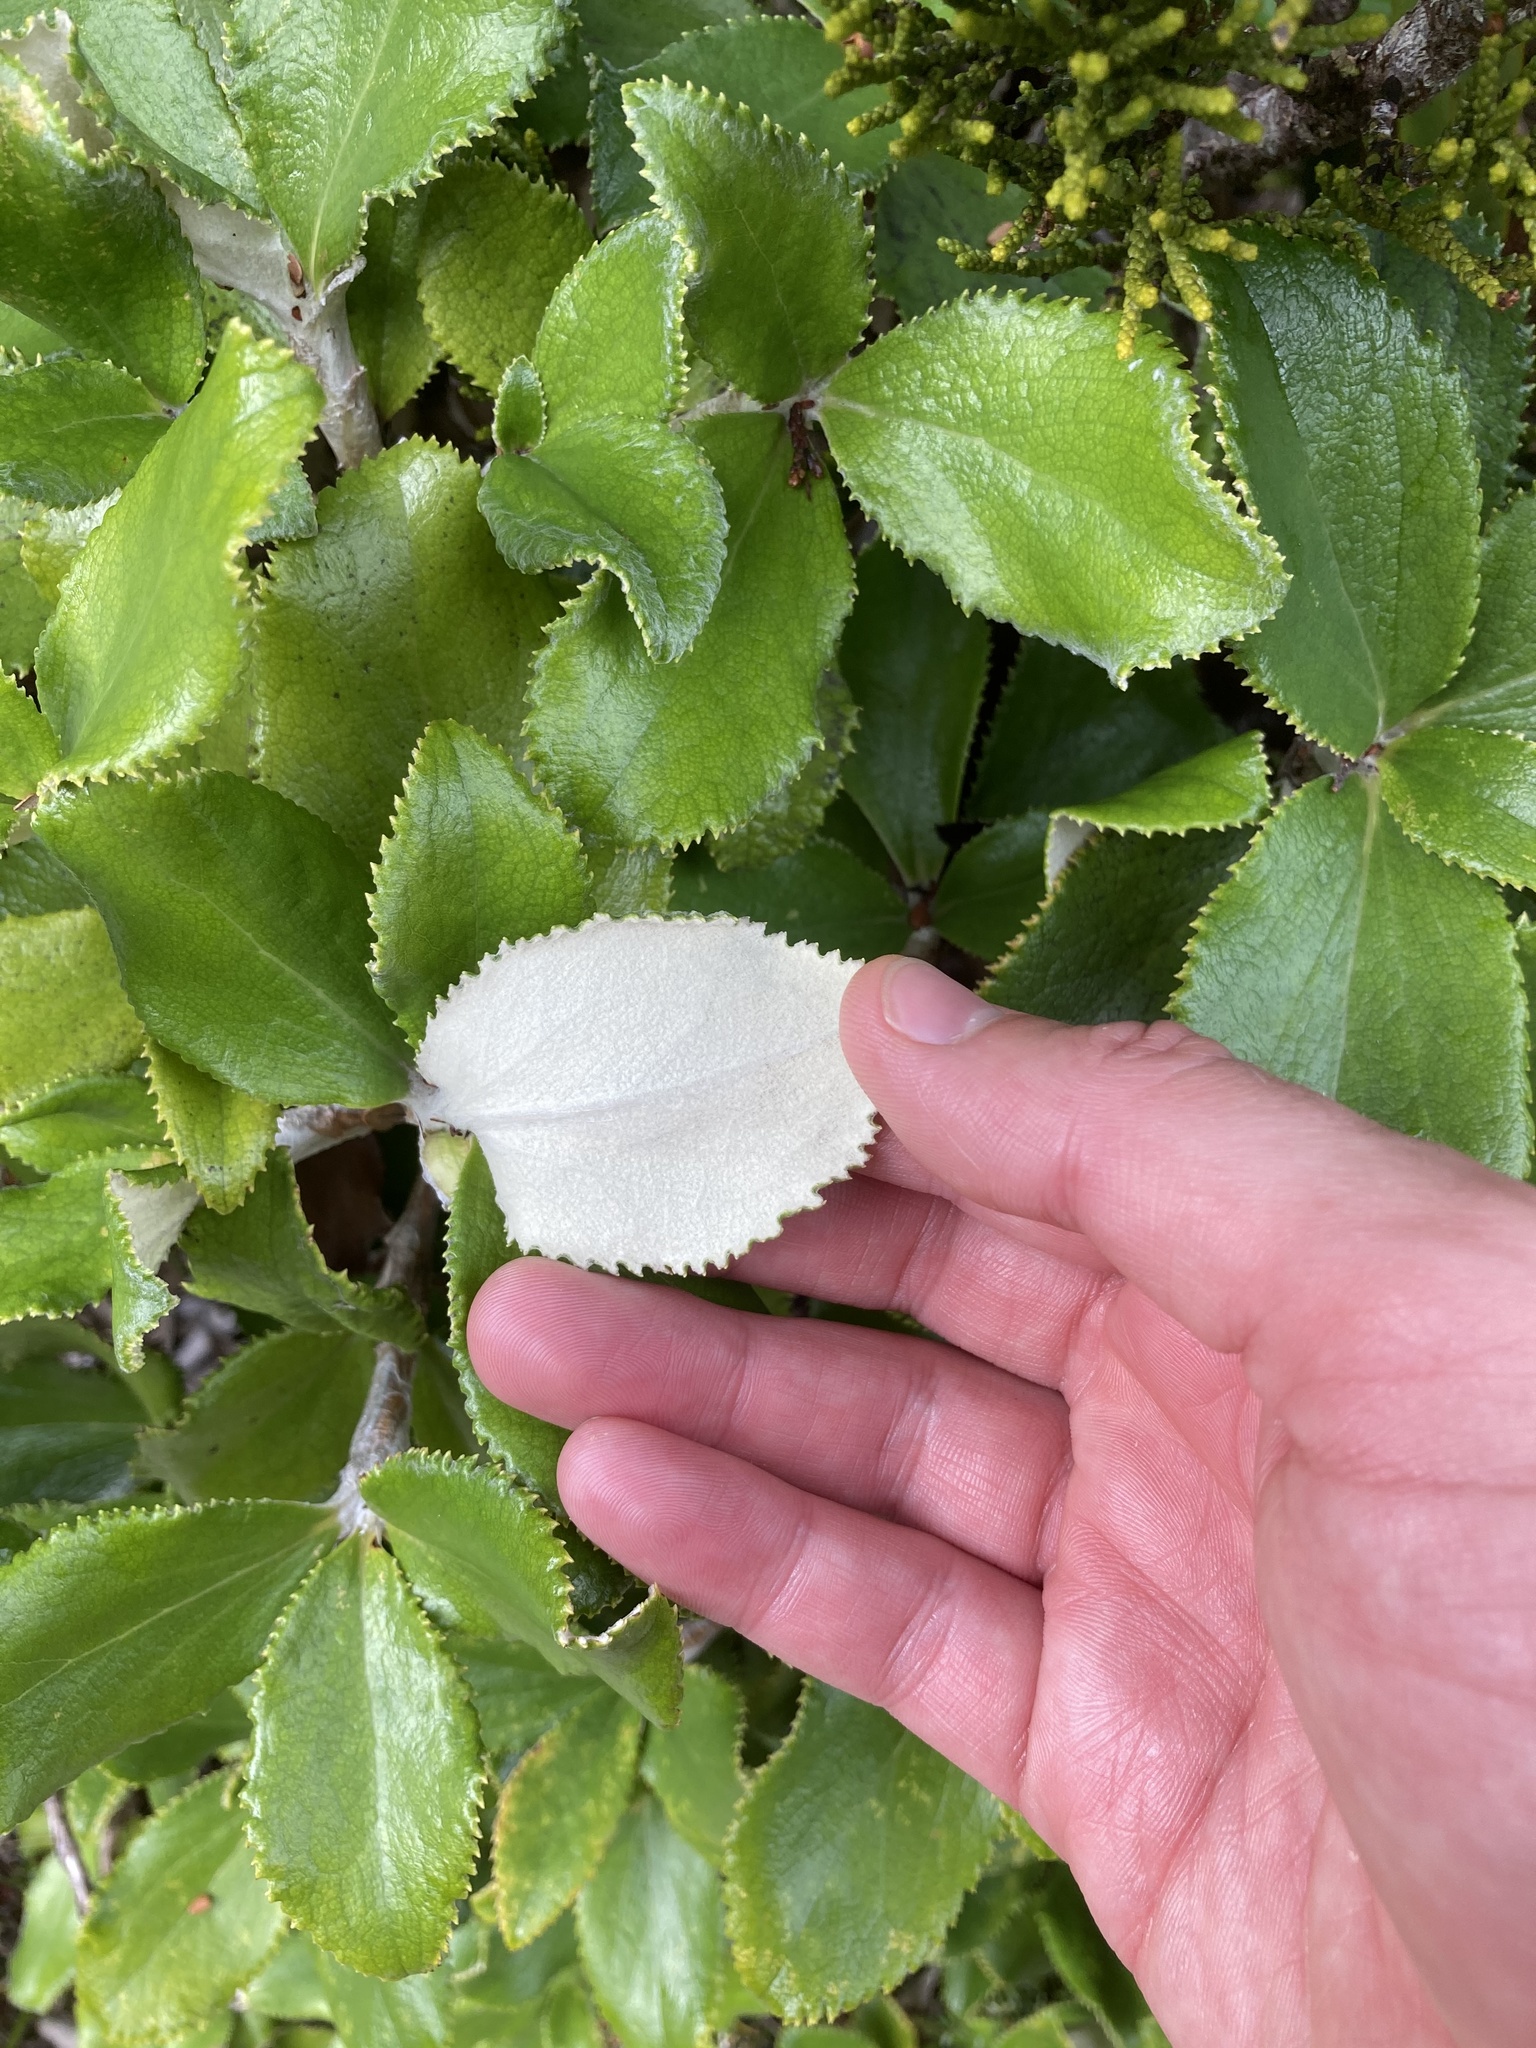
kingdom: Plantae
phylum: Tracheophyta
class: Magnoliopsida
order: Asterales
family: Asteraceae
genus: Macrolearia
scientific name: Macrolearia colensoi
